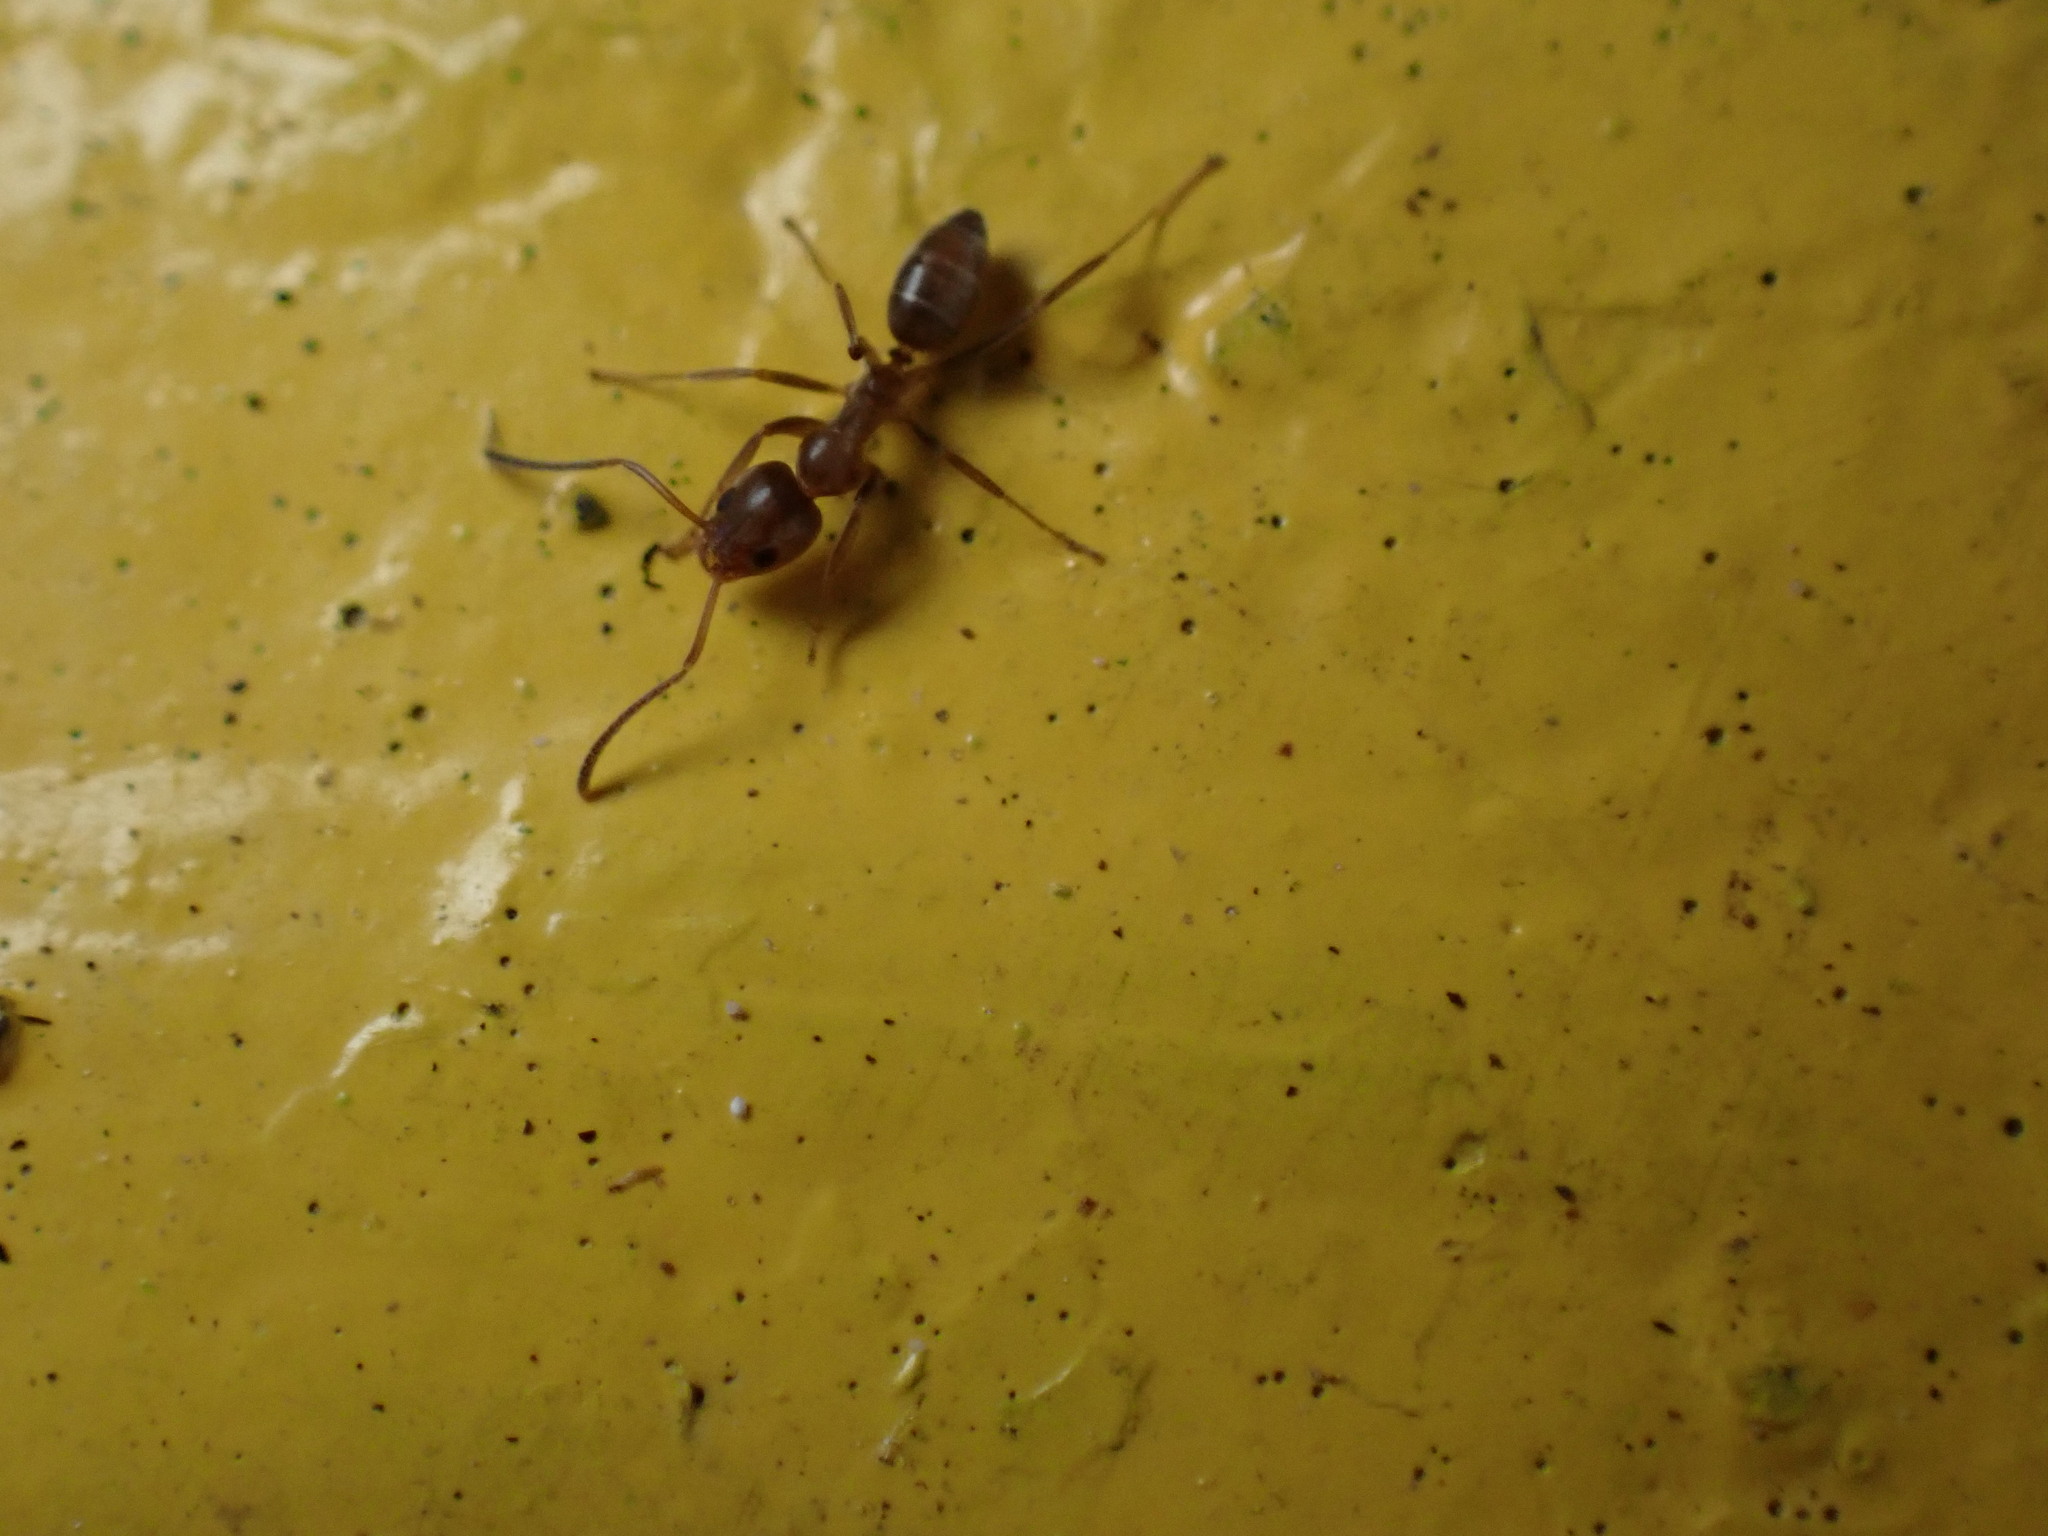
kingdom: Animalia
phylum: Arthropoda
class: Insecta
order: Hymenoptera
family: Formicidae
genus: Linepithema
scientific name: Linepithema humile
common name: Argentine ant
